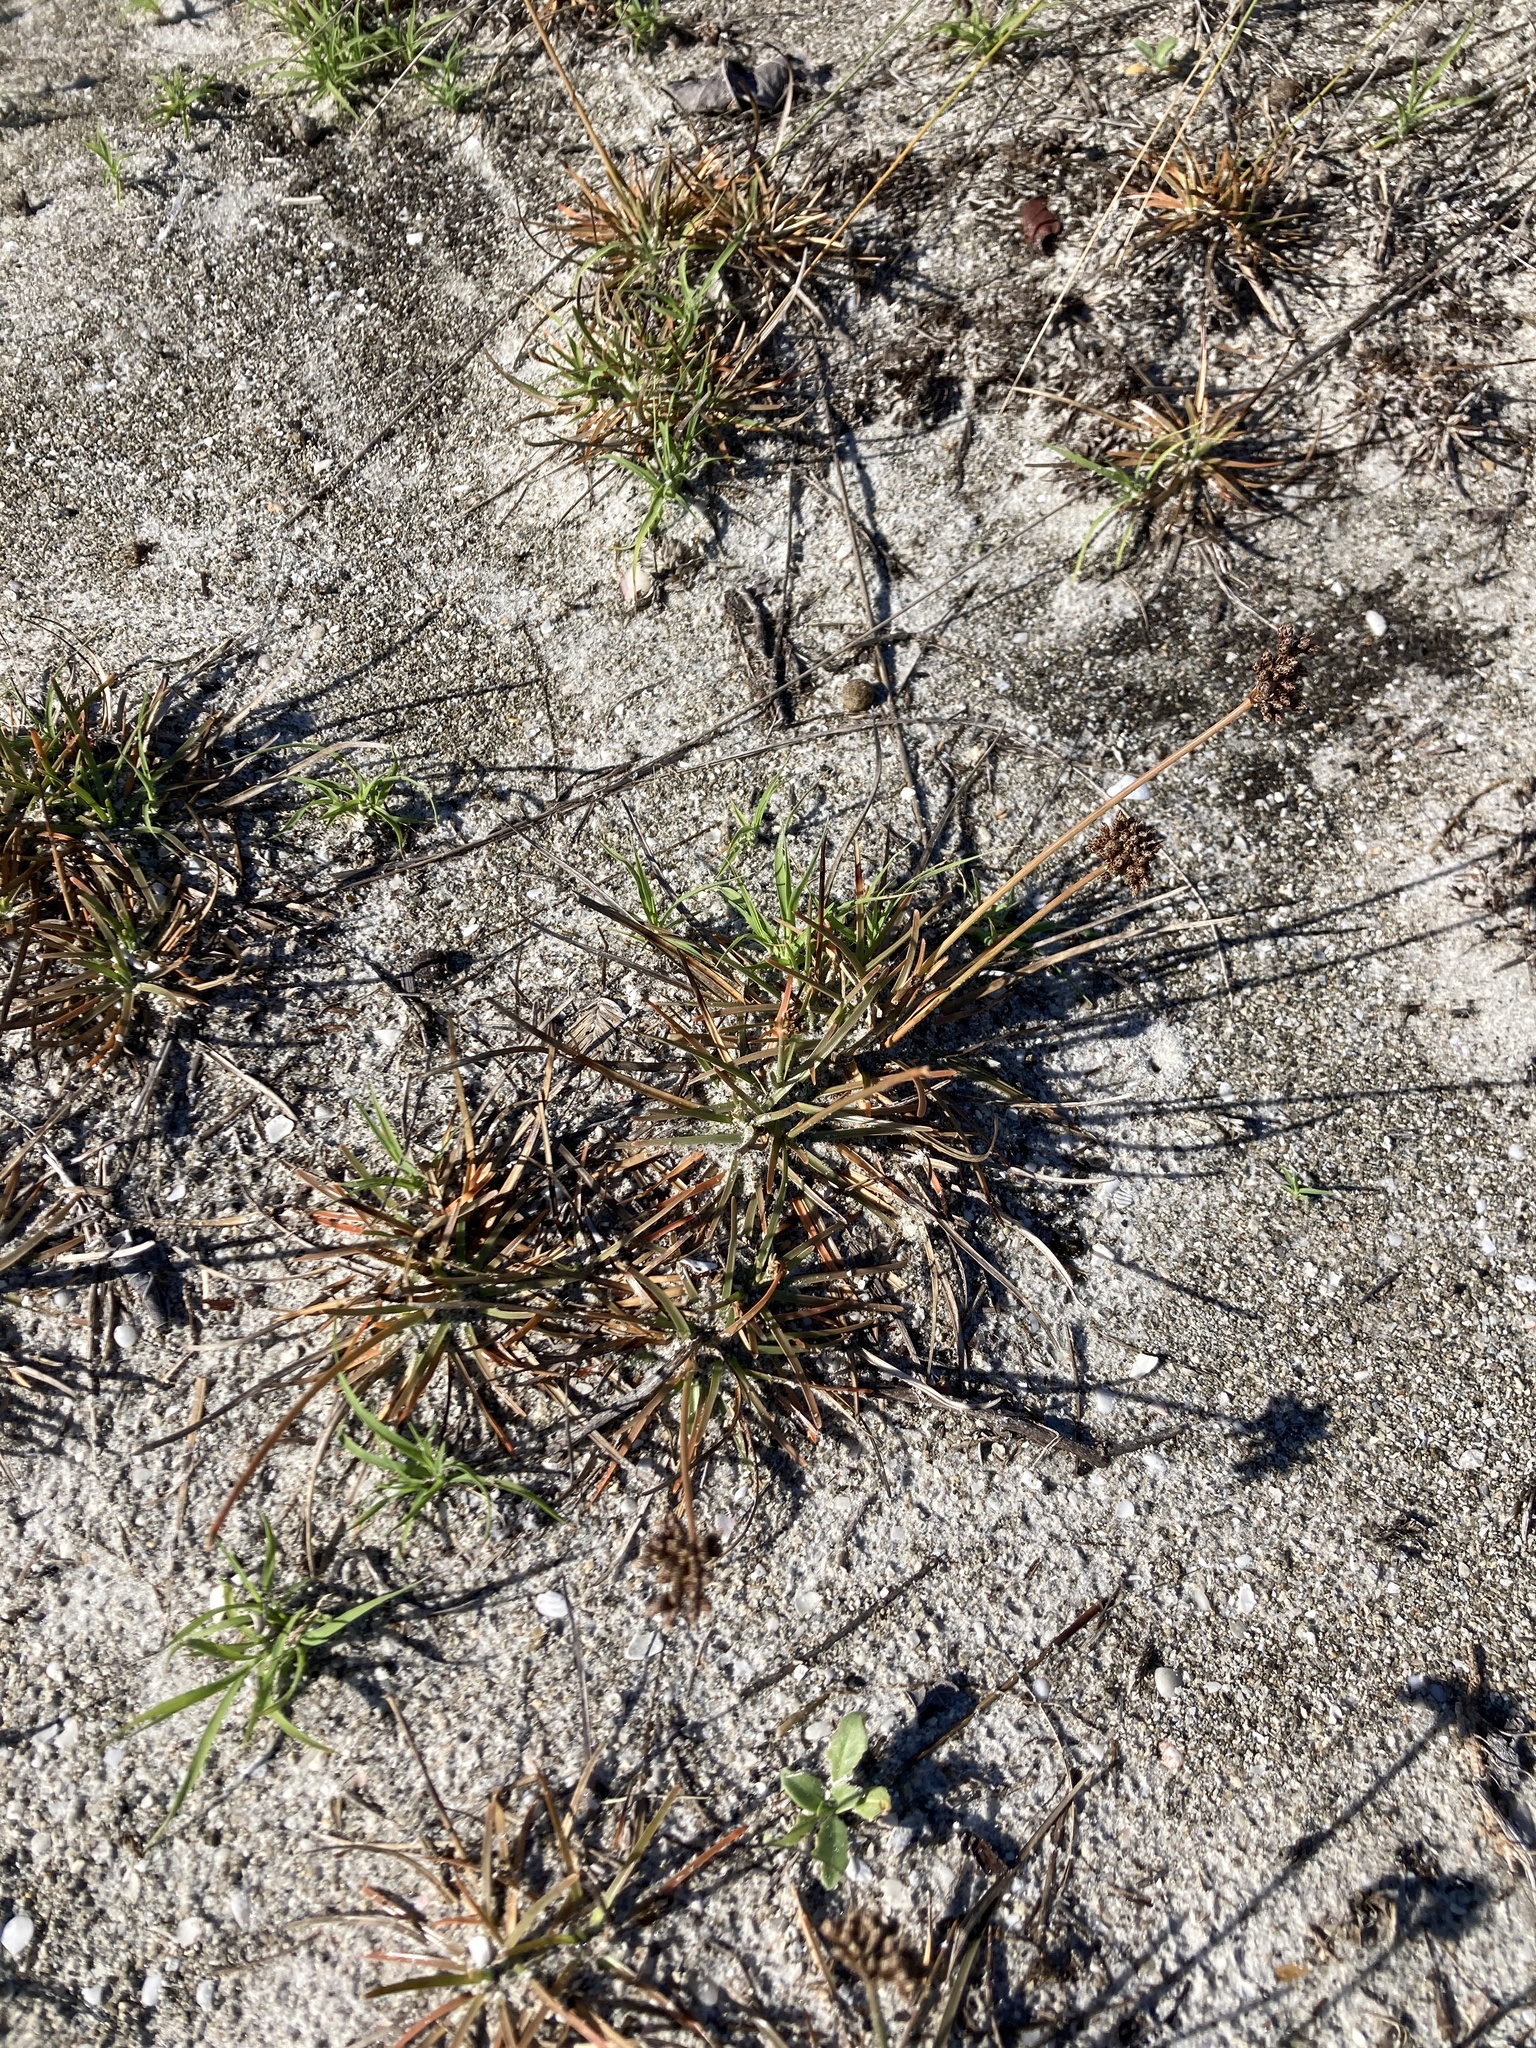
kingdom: Plantae
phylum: Tracheophyta
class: Liliopsida
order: Poales
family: Cyperaceae
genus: Fimbristylis
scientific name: Fimbristylis cymosa
